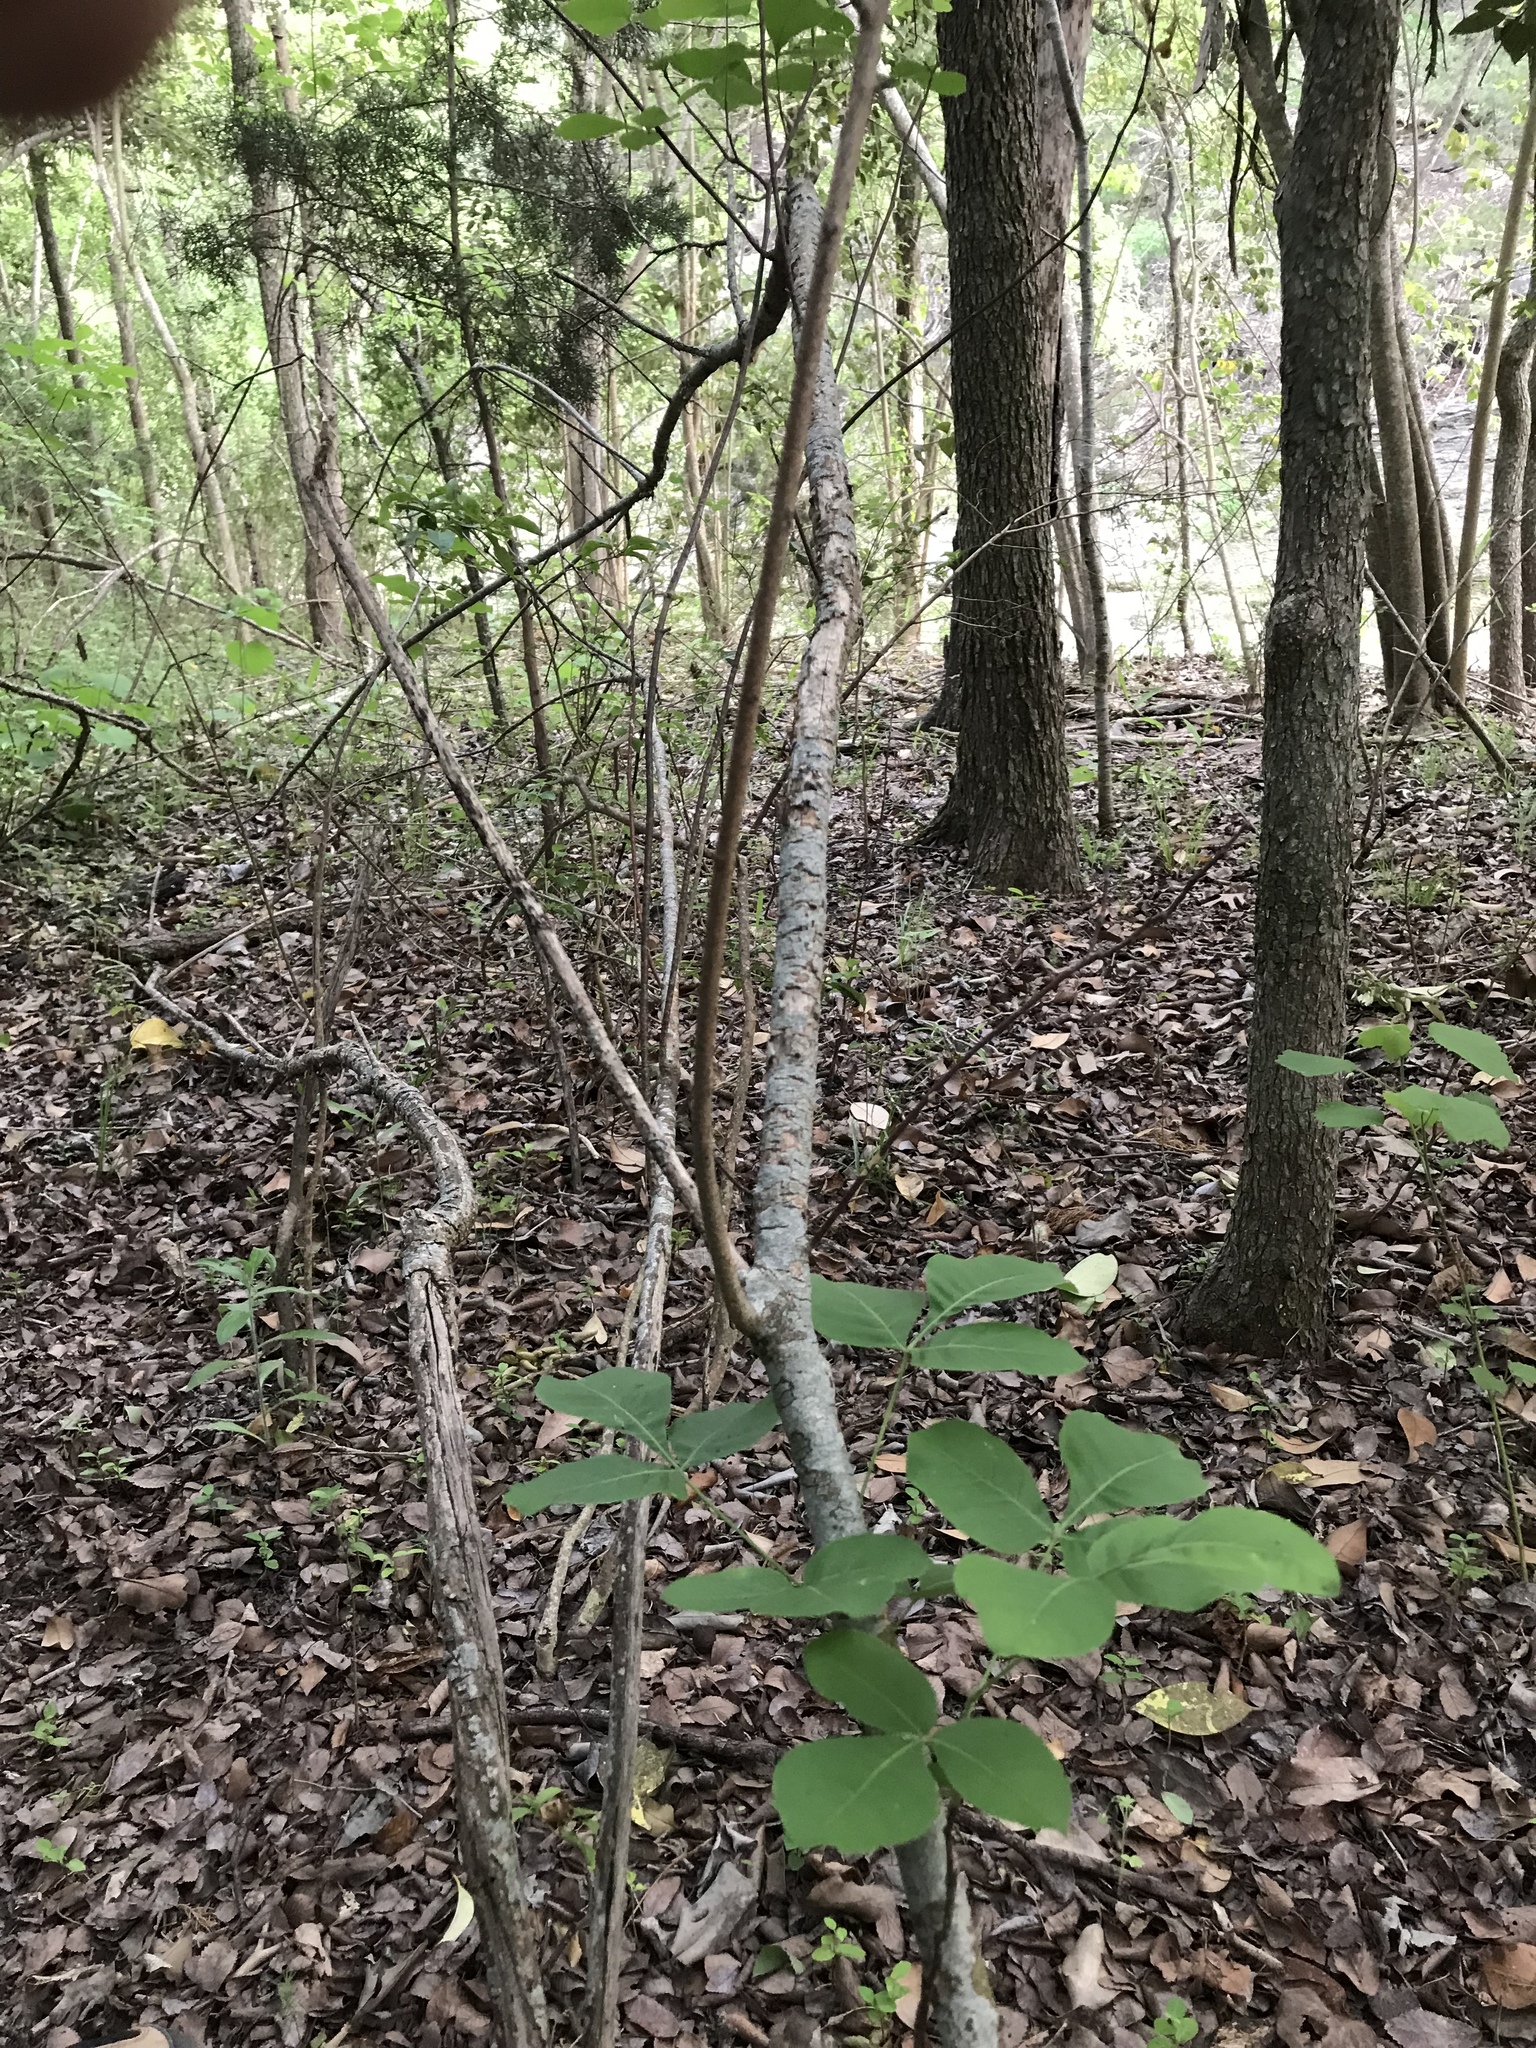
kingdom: Plantae
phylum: Tracheophyta
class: Magnoliopsida
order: Sapindales
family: Rutaceae
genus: Ptelea
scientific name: Ptelea trifoliata
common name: Common hop-tree
